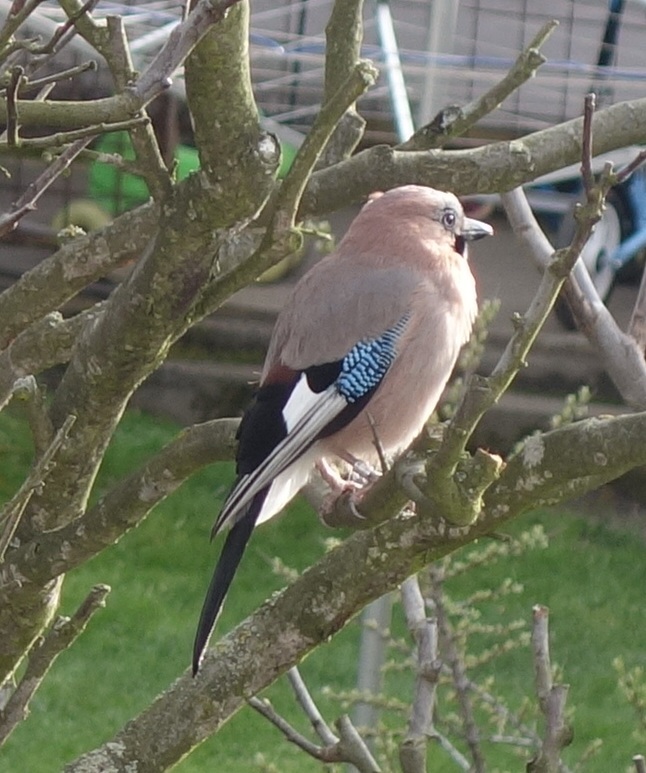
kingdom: Animalia
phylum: Chordata
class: Aves
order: Passeriformes
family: Corvidae
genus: Garrulus
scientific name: Garrulus glandarius
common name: Eurasian jay
